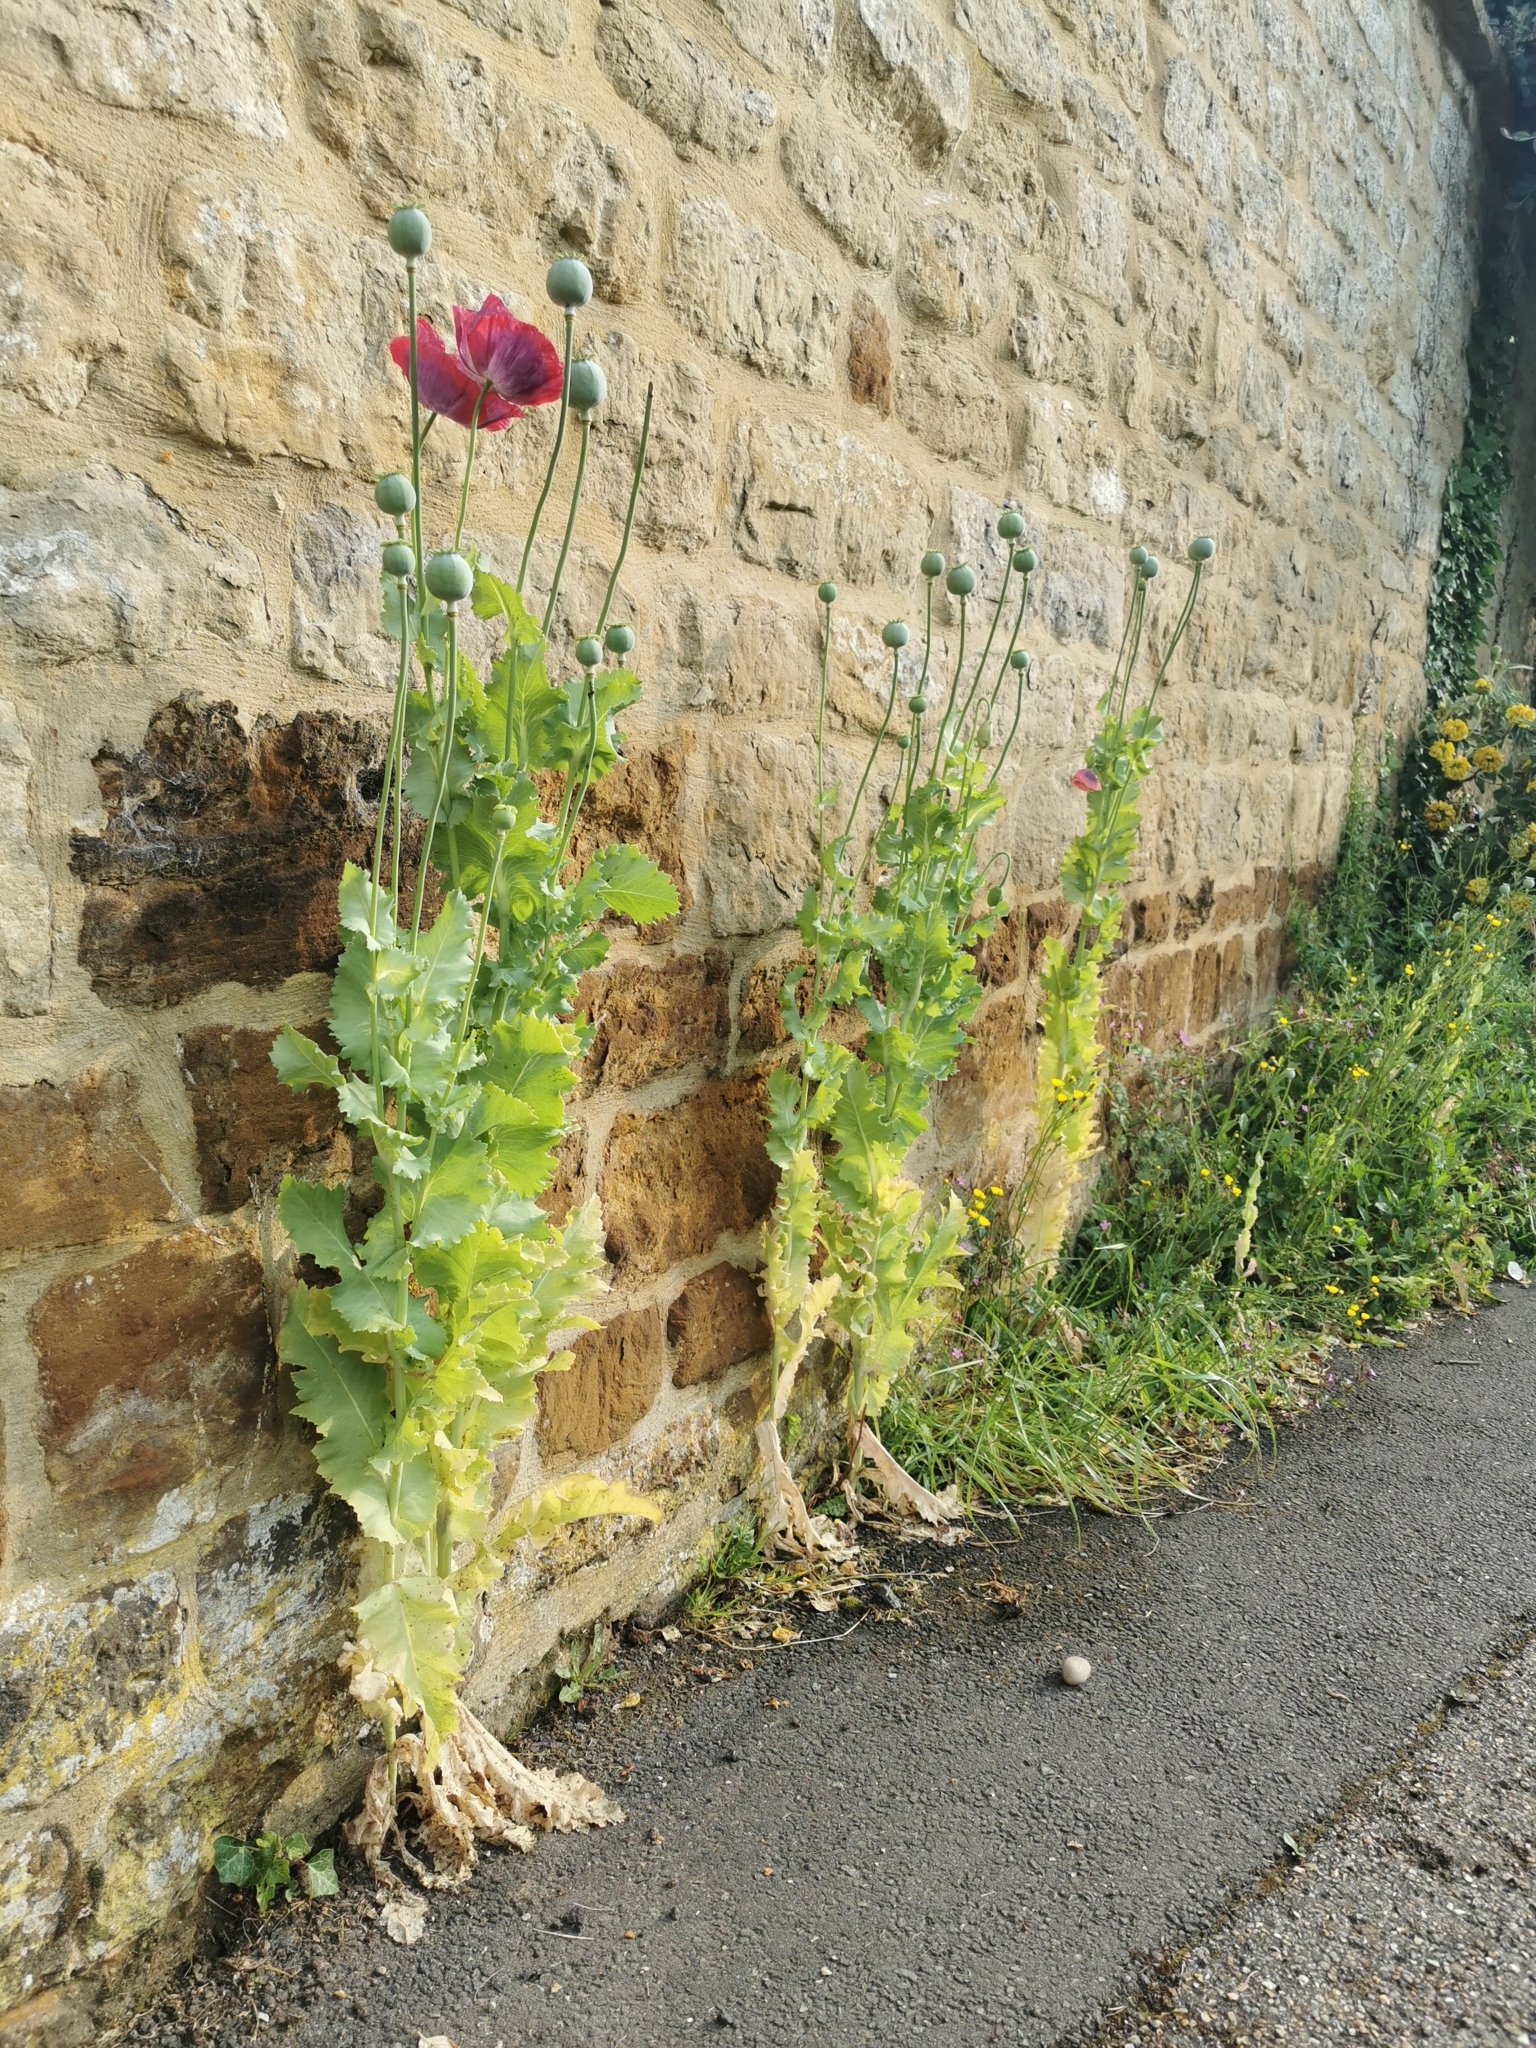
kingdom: Plantae
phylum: Tracheophyta
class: Magnoliopsida
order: Ranunculales
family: Papaveraceae
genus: Papaver
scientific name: Papaver somniferum
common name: Opium poppy
